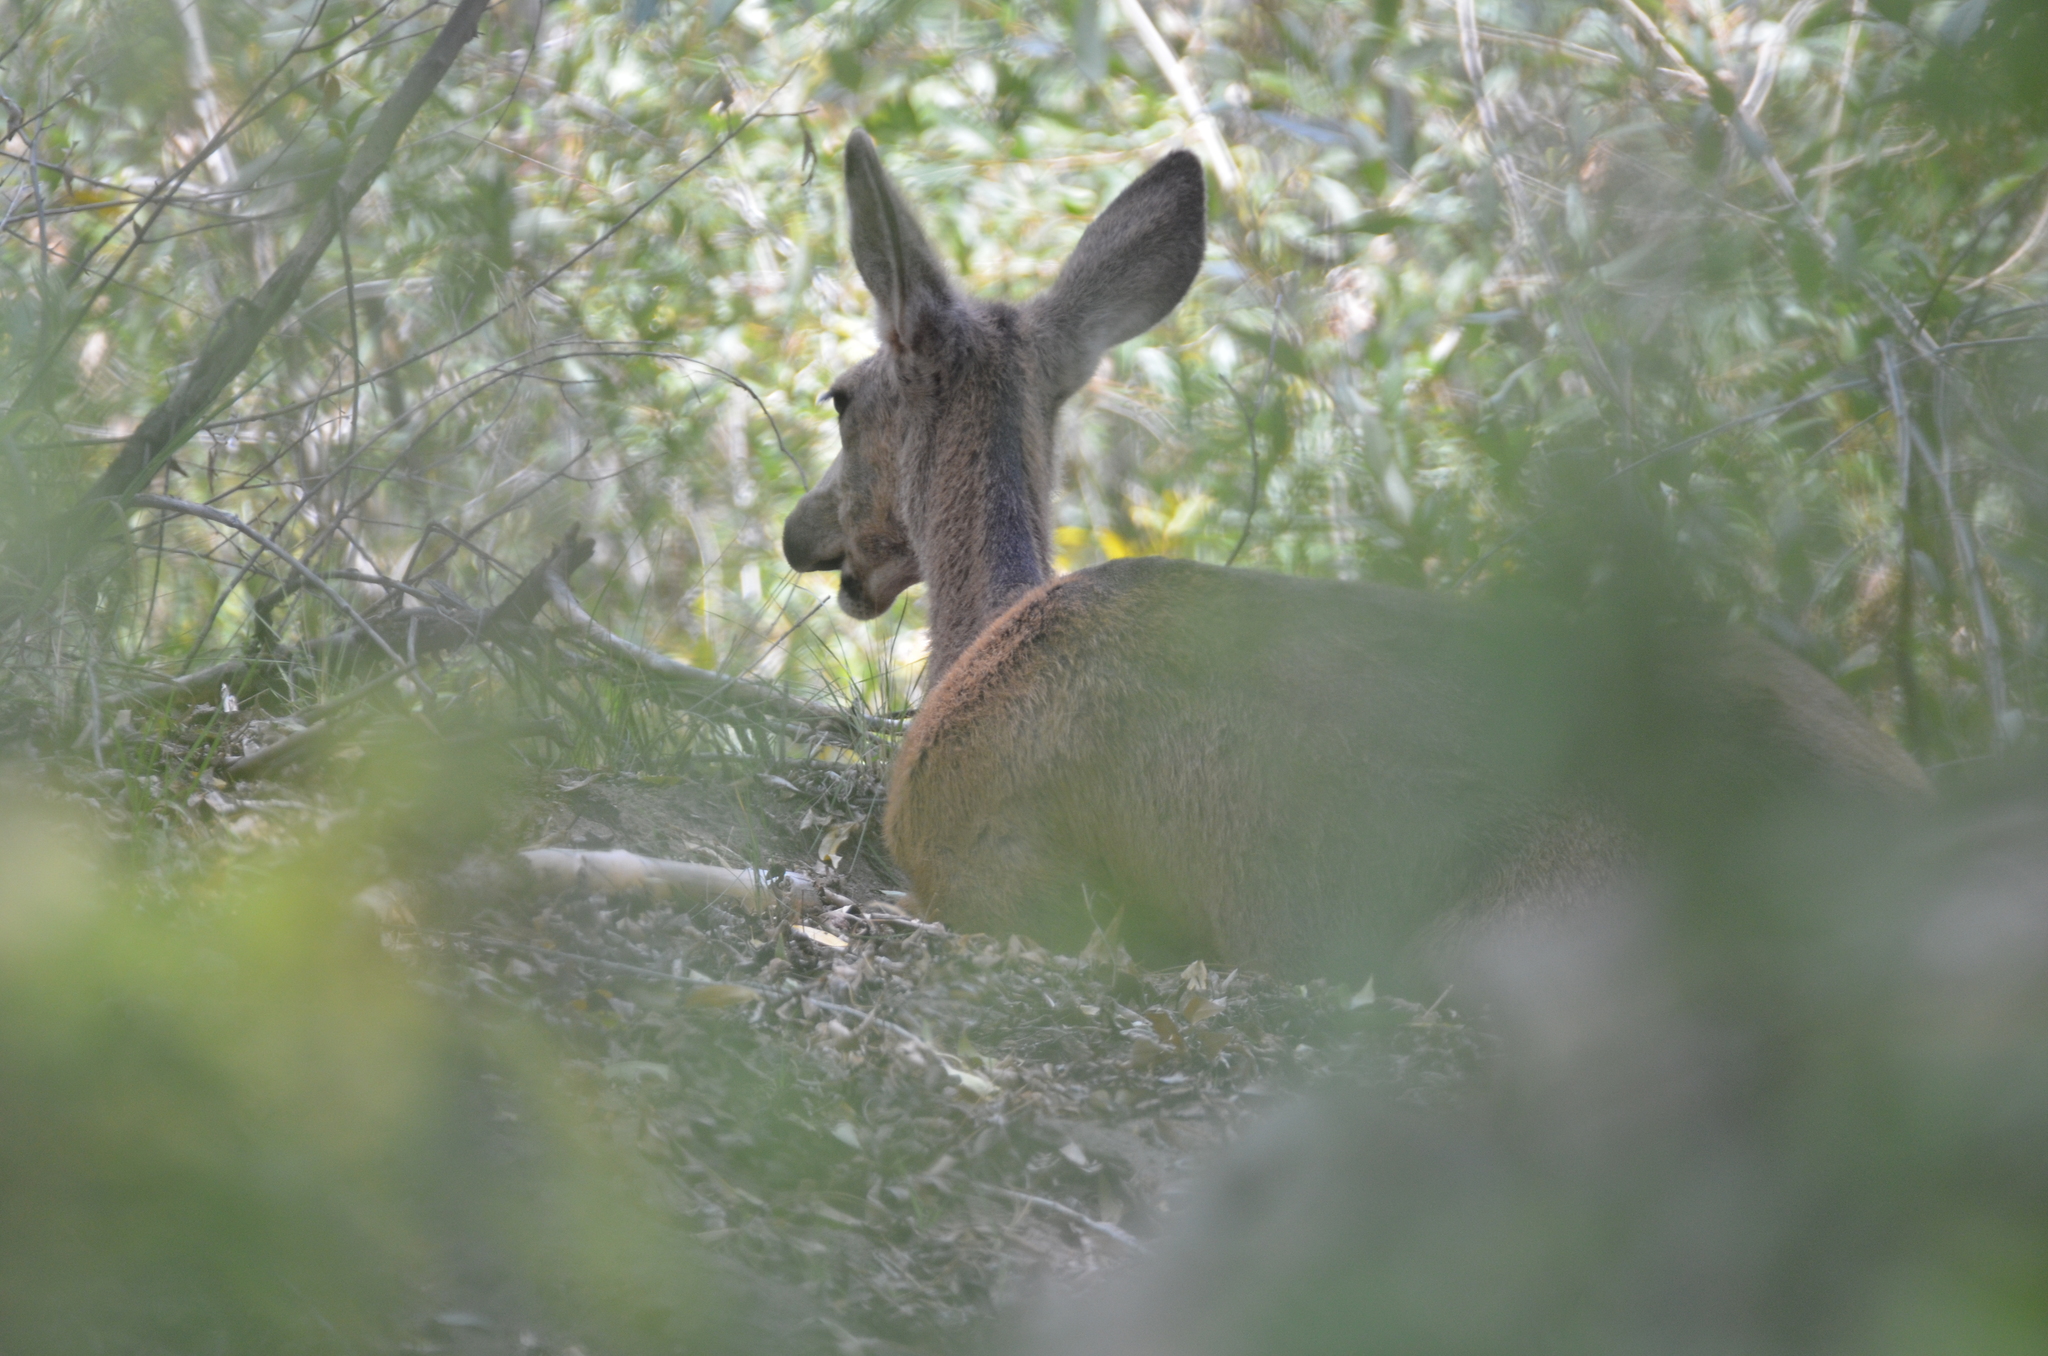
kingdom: Animalia
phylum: Chordata
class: Mammalia
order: Artiodactyla
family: Cervidae
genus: Odocoileus
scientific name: Odocoileus hemionus
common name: Mule deer
